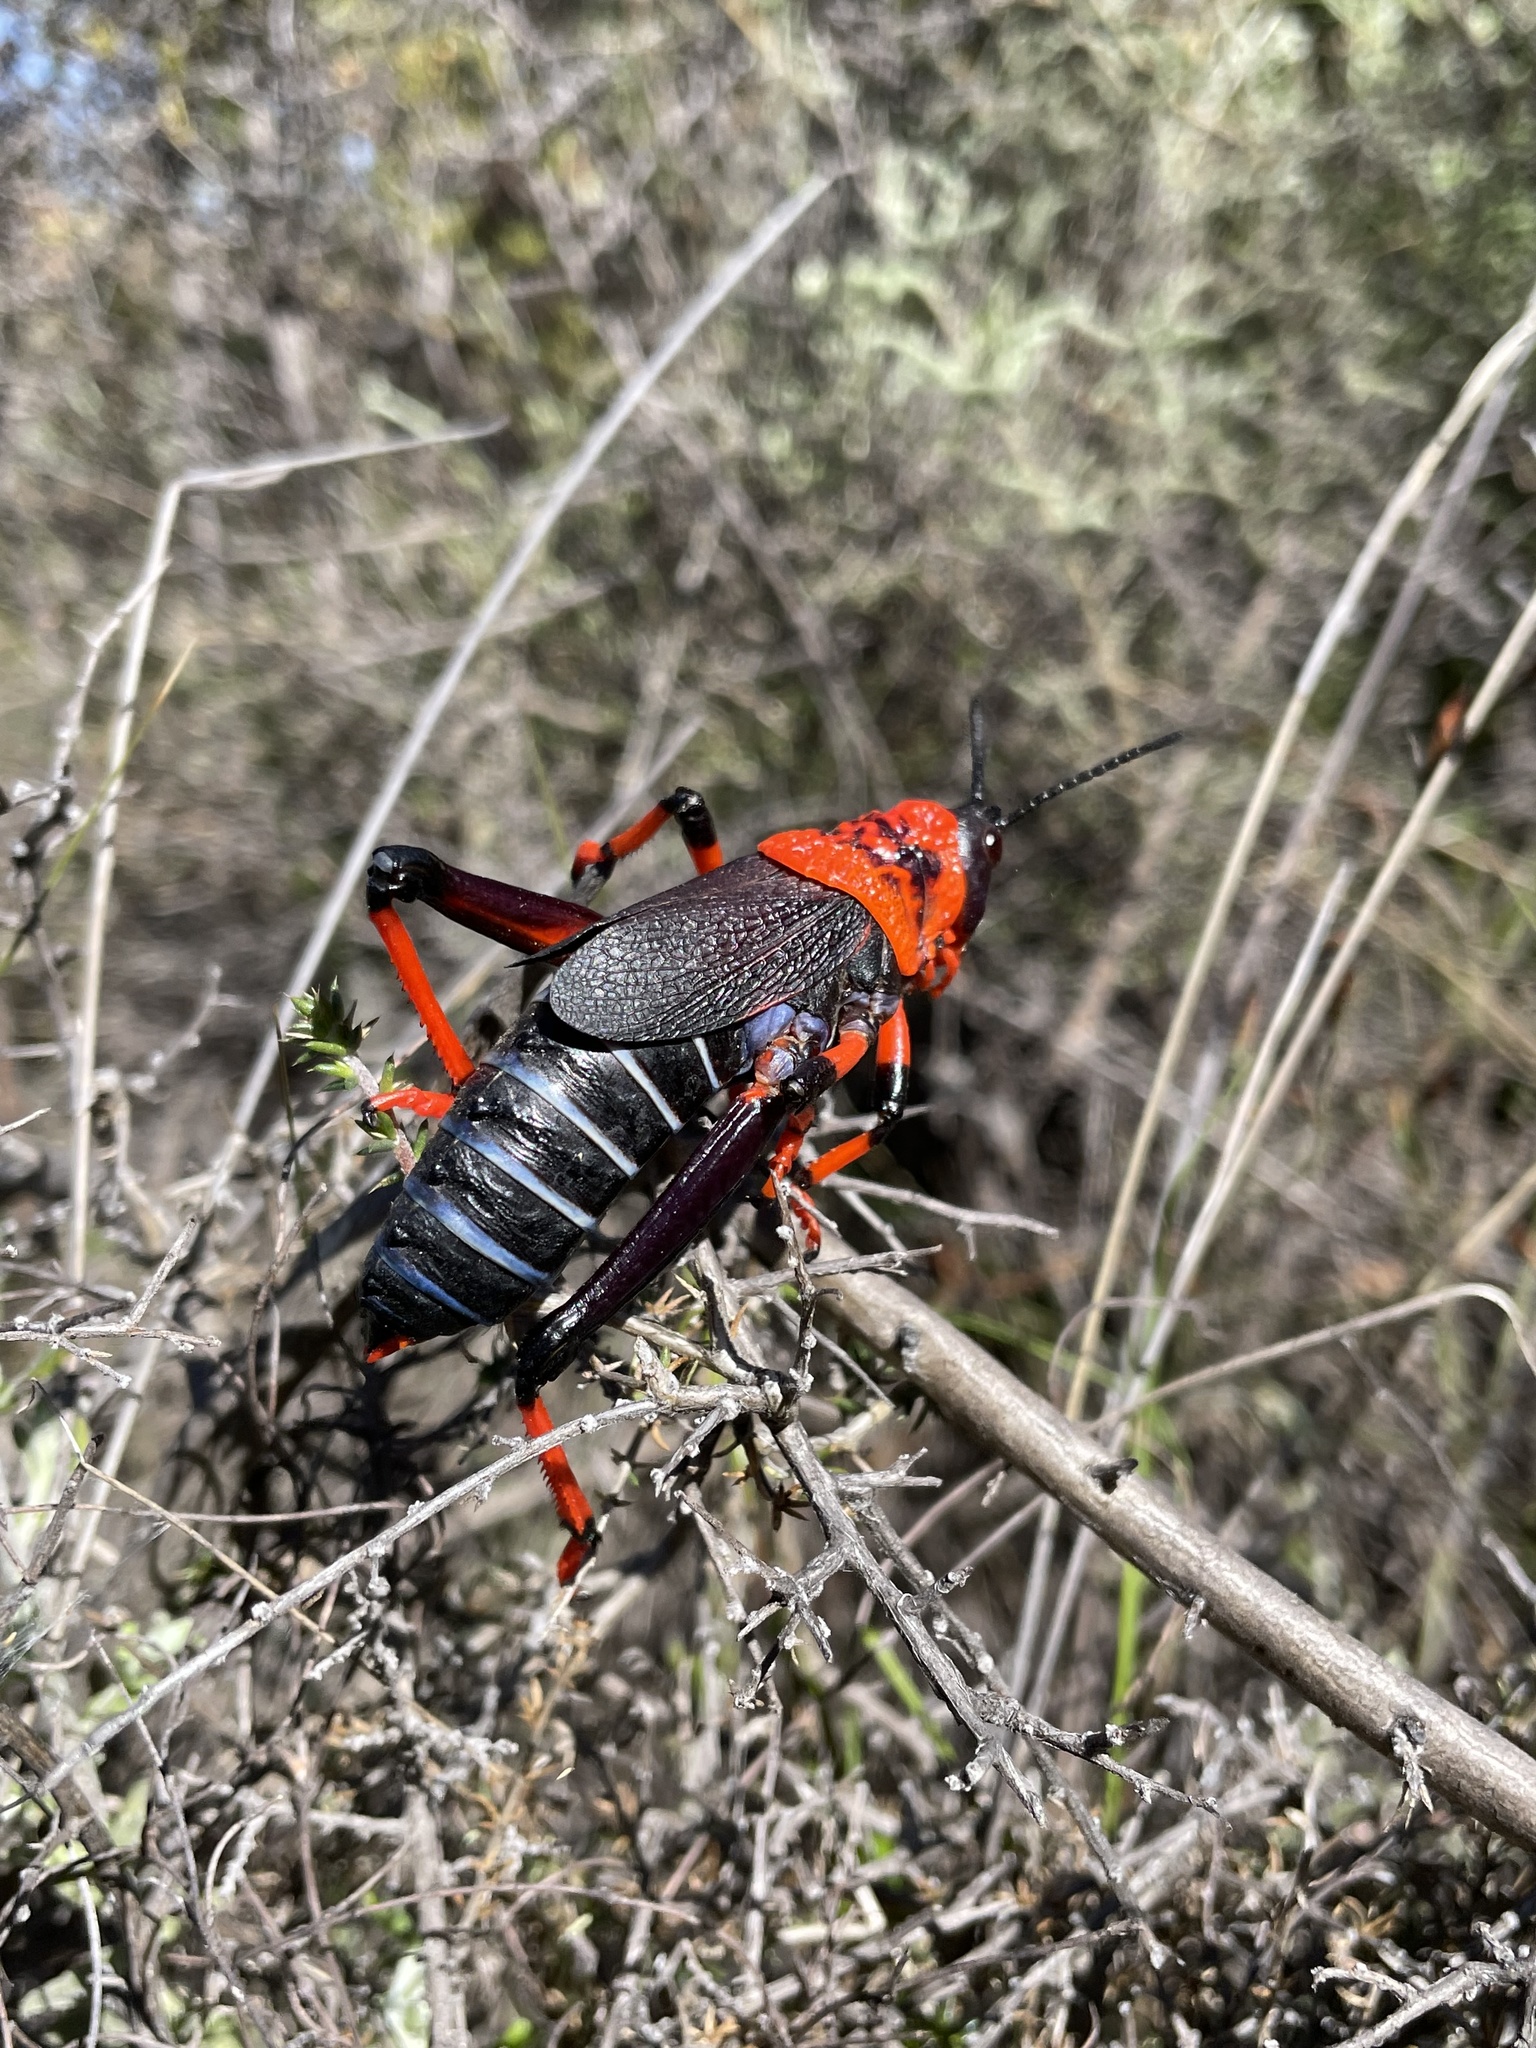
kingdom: Animalia
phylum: Arthropoda
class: Insecta
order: Orthoptera
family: Pyrgomorphidae
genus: Dictyophorus
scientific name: Dictyophorus spumans
